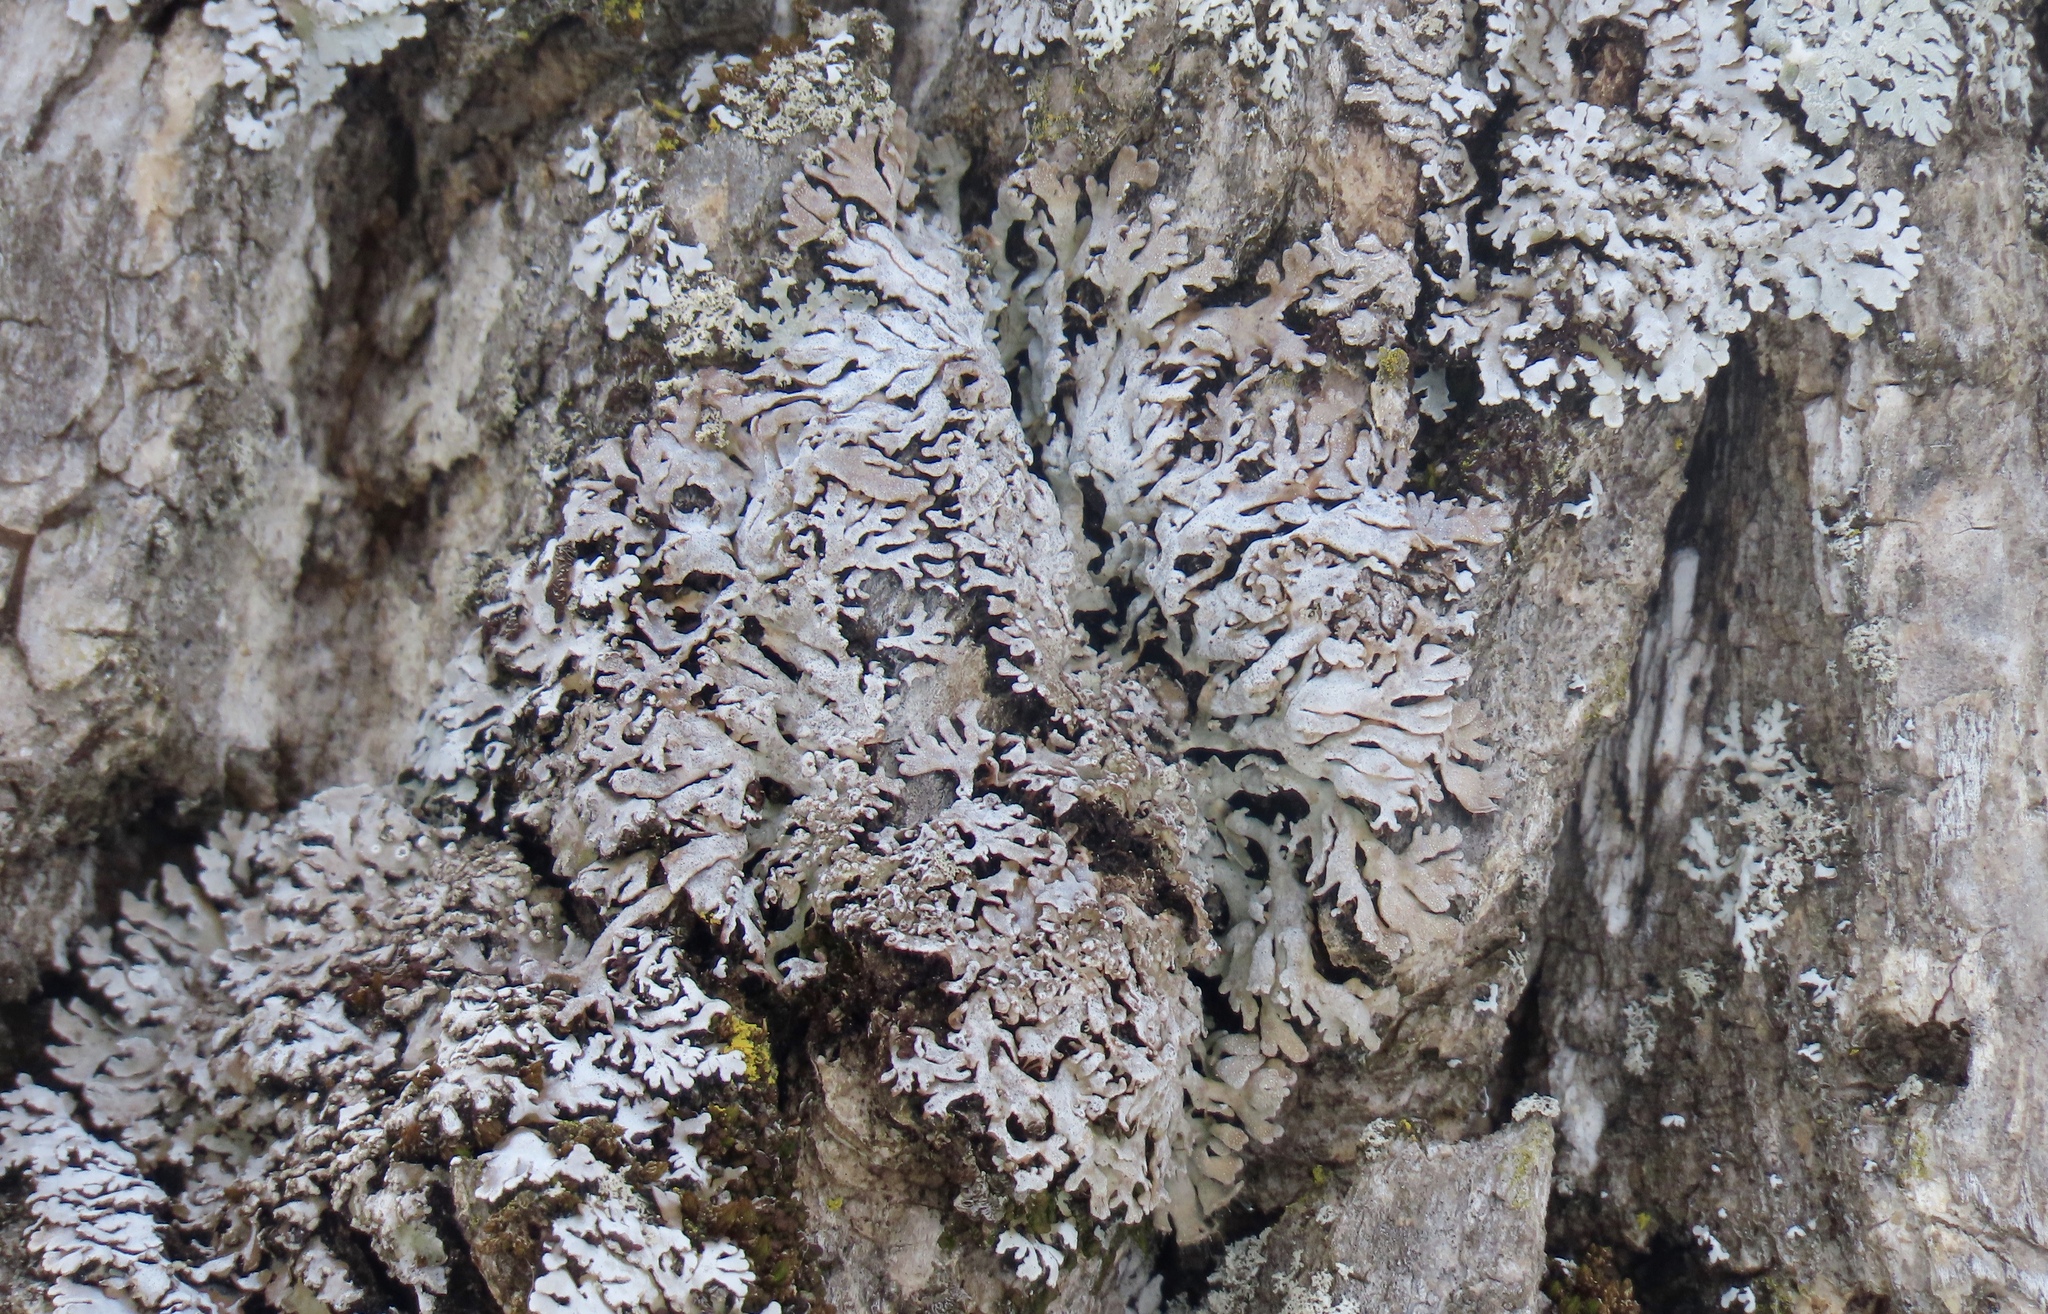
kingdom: Fungi
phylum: Ascomycota
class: Lecanoromycetes
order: Caliciales
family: Physciaceae
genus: Physconia
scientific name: Physconia subpallida
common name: Pale-belly frost lichen
